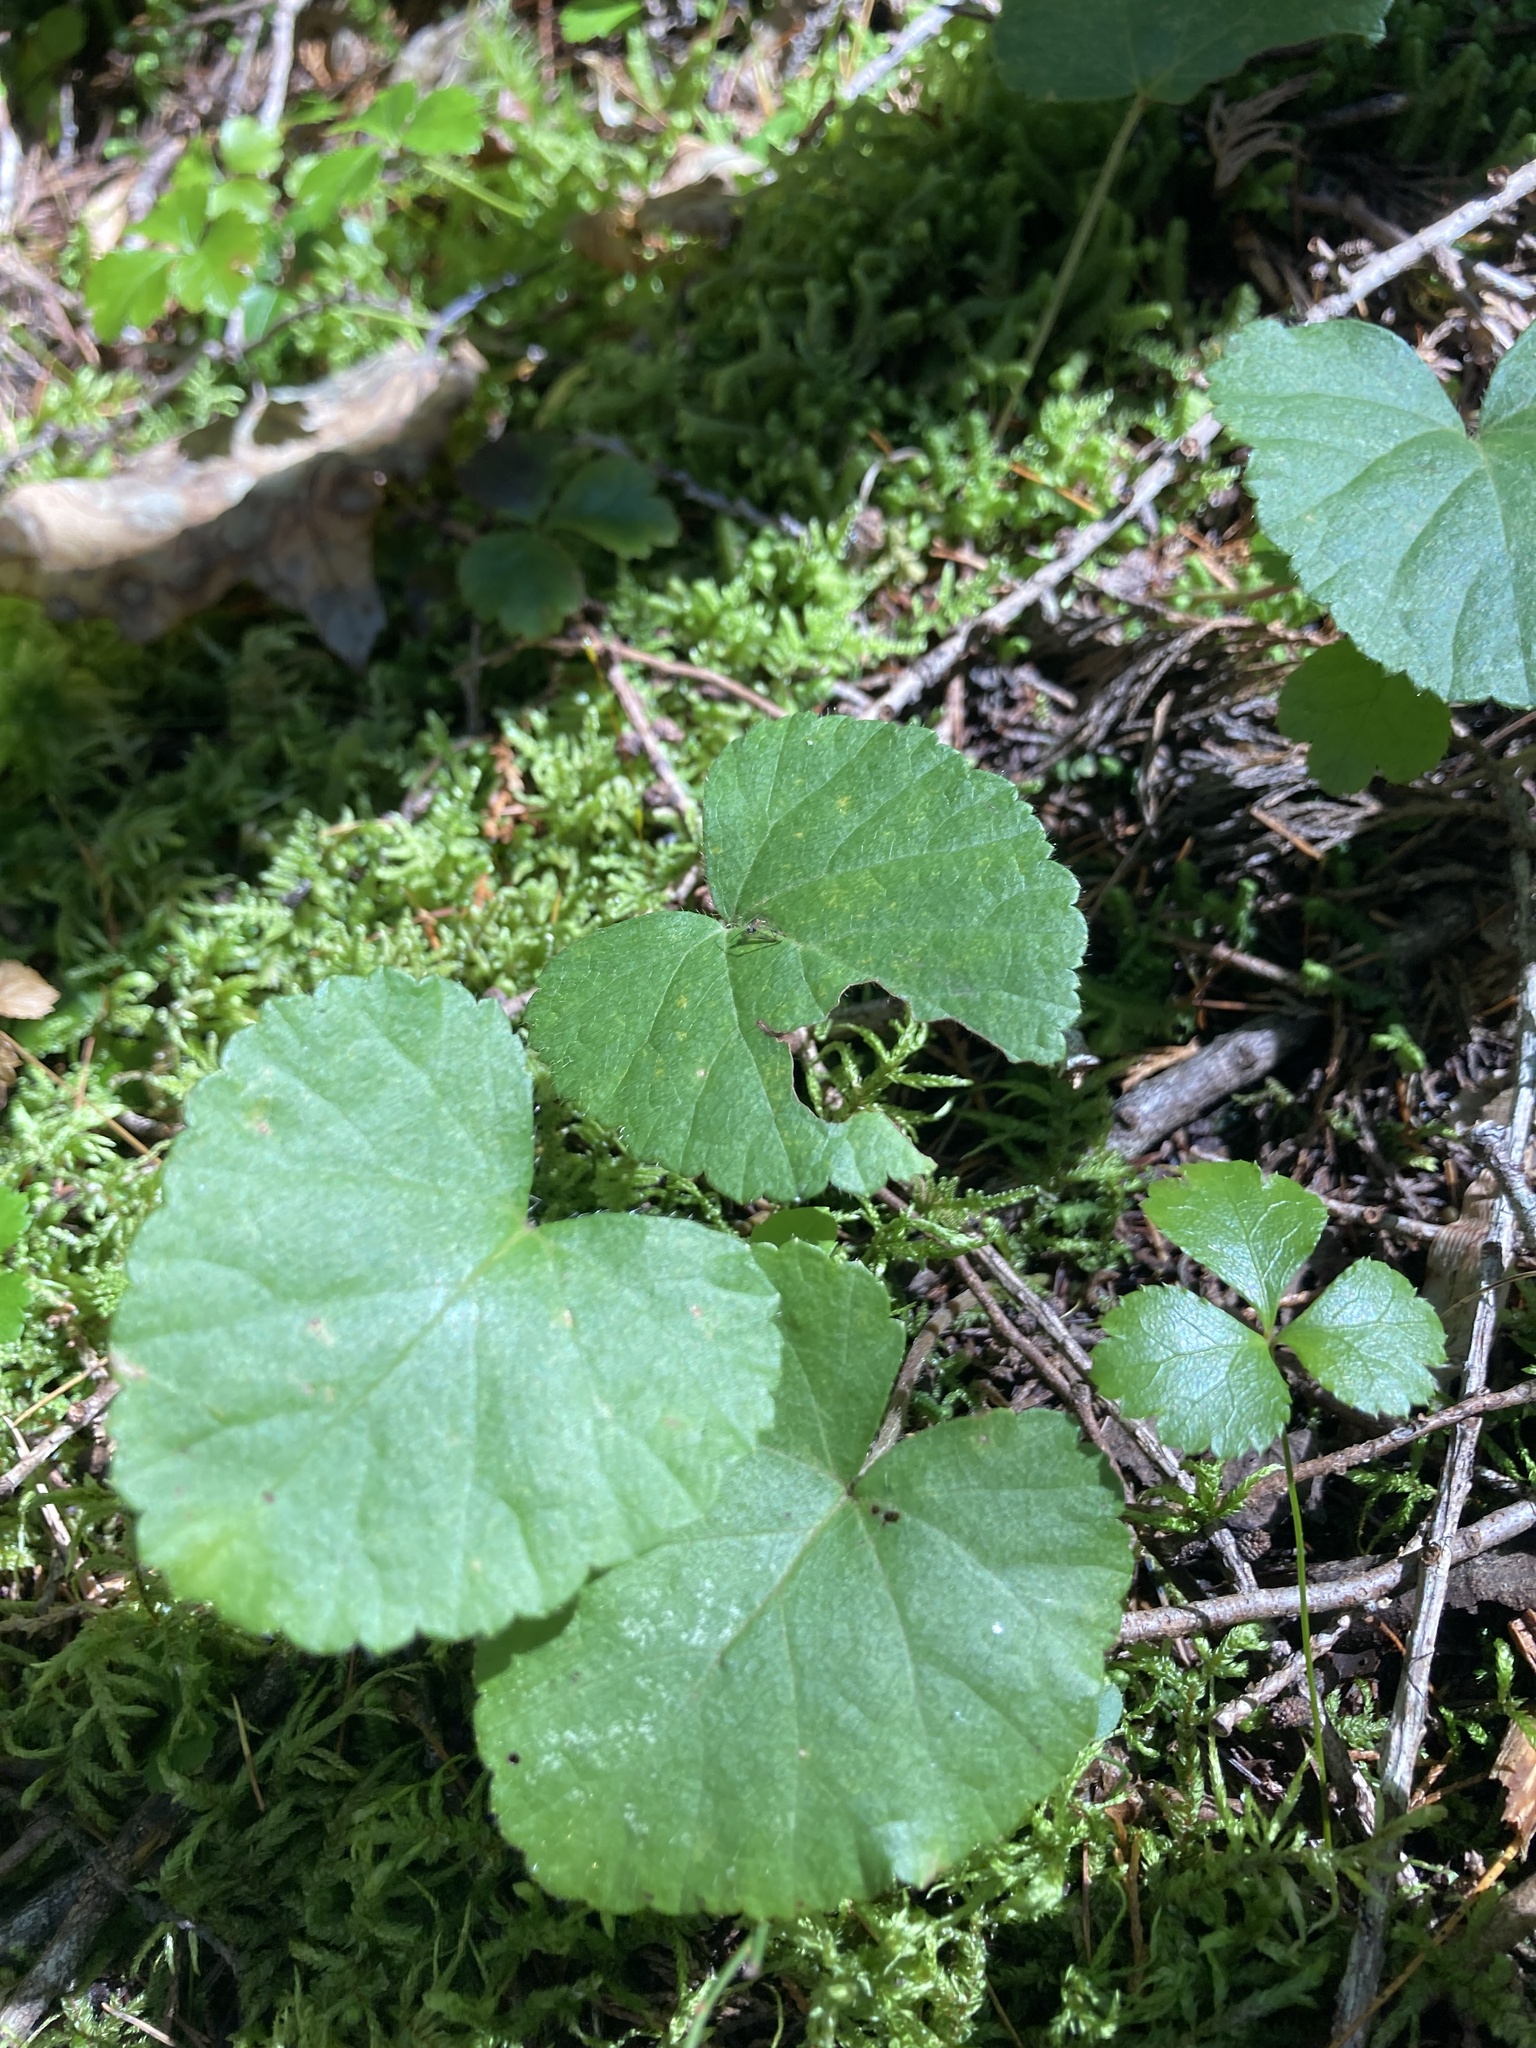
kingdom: Plantae
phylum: Tracheophyta
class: Magnoliopsida
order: Rosales
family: Rosaceae
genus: Dalibarda
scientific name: Dalibarda repens
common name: Dewdrop
